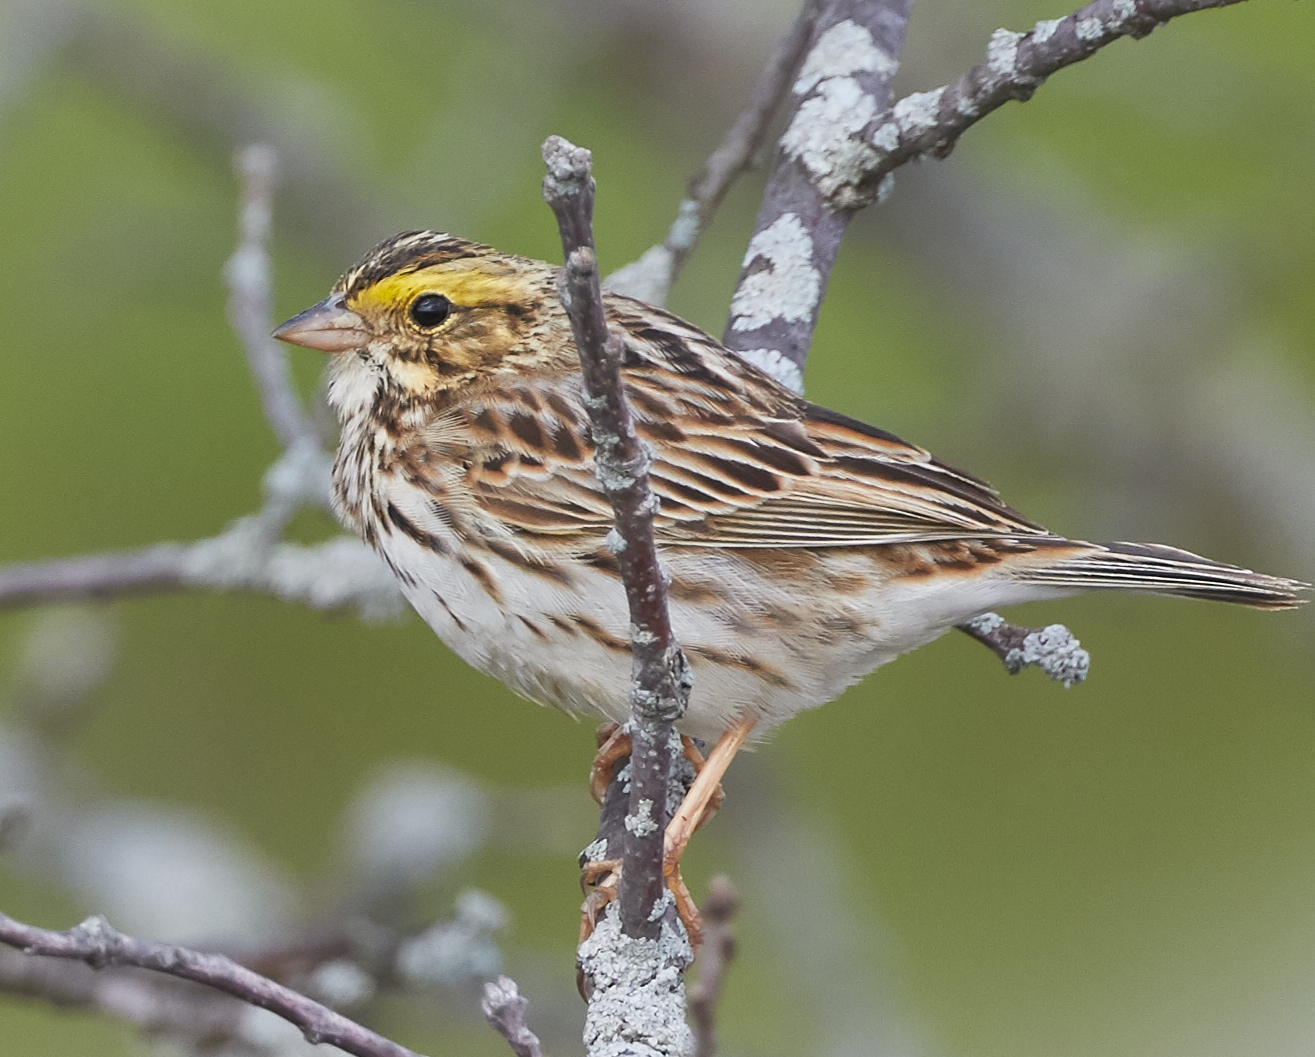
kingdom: Animalia
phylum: Chordata
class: Aves
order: Passeriformes
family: Passerellidae
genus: Passerculus
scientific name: Passerculus sandwichensis
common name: Savannah sparrow
